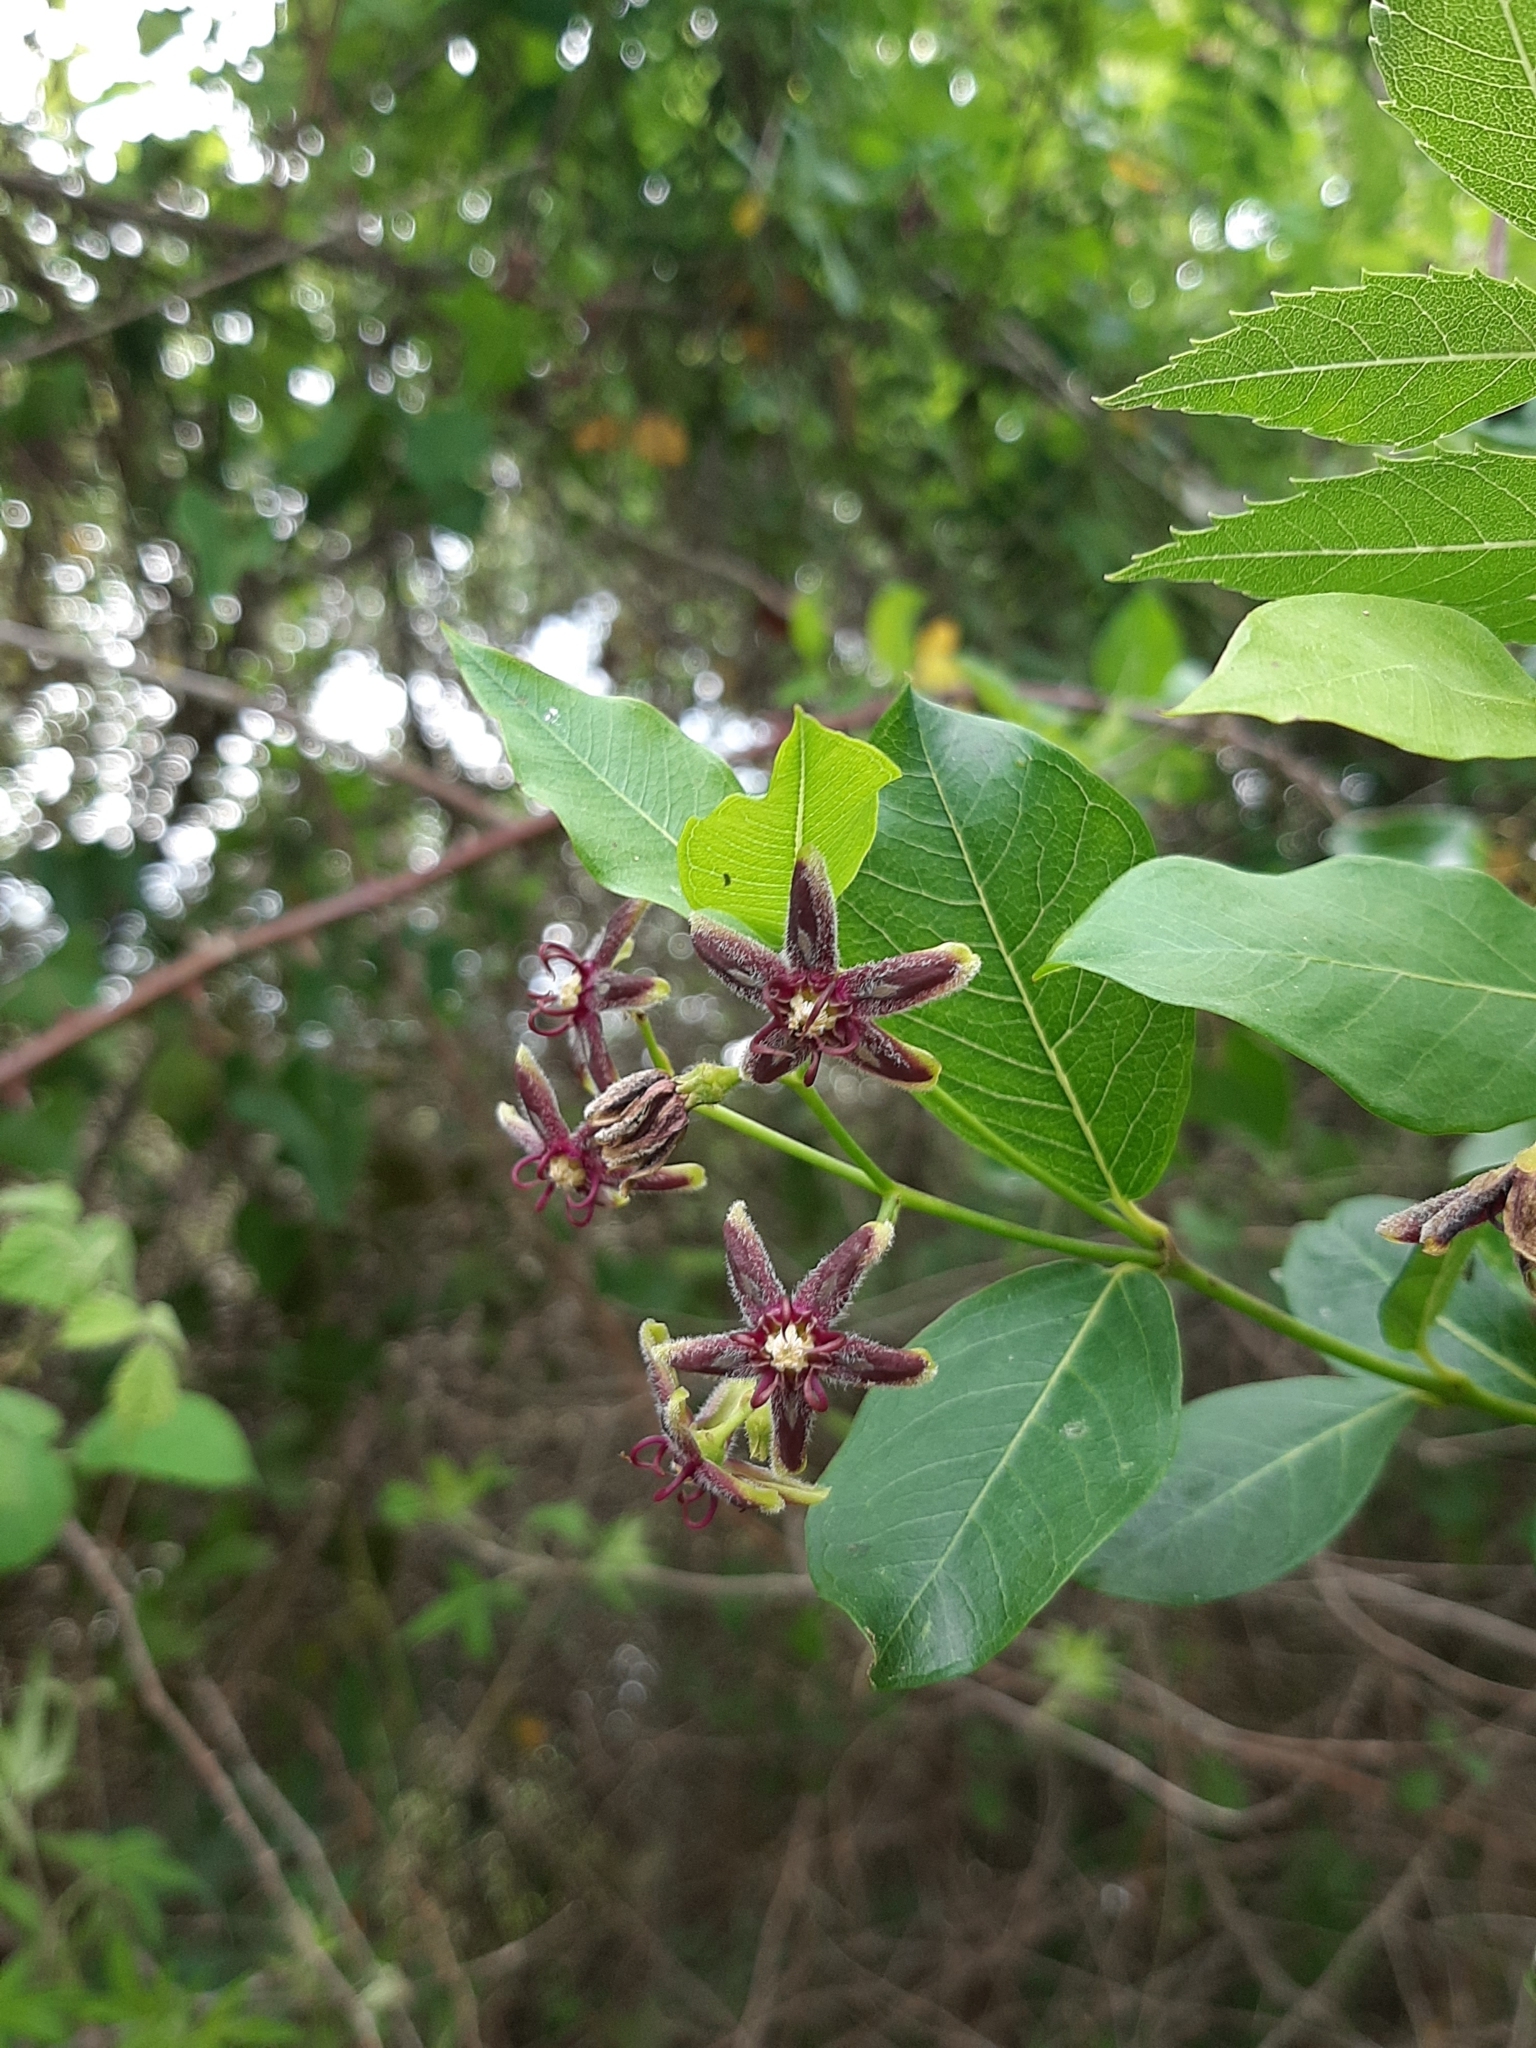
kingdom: Plantae
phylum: Tracheophyta
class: Magnoliopsida
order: Gentianales
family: Apocynaceae
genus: Periploca
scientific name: Periploca graeca
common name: Silkvine
